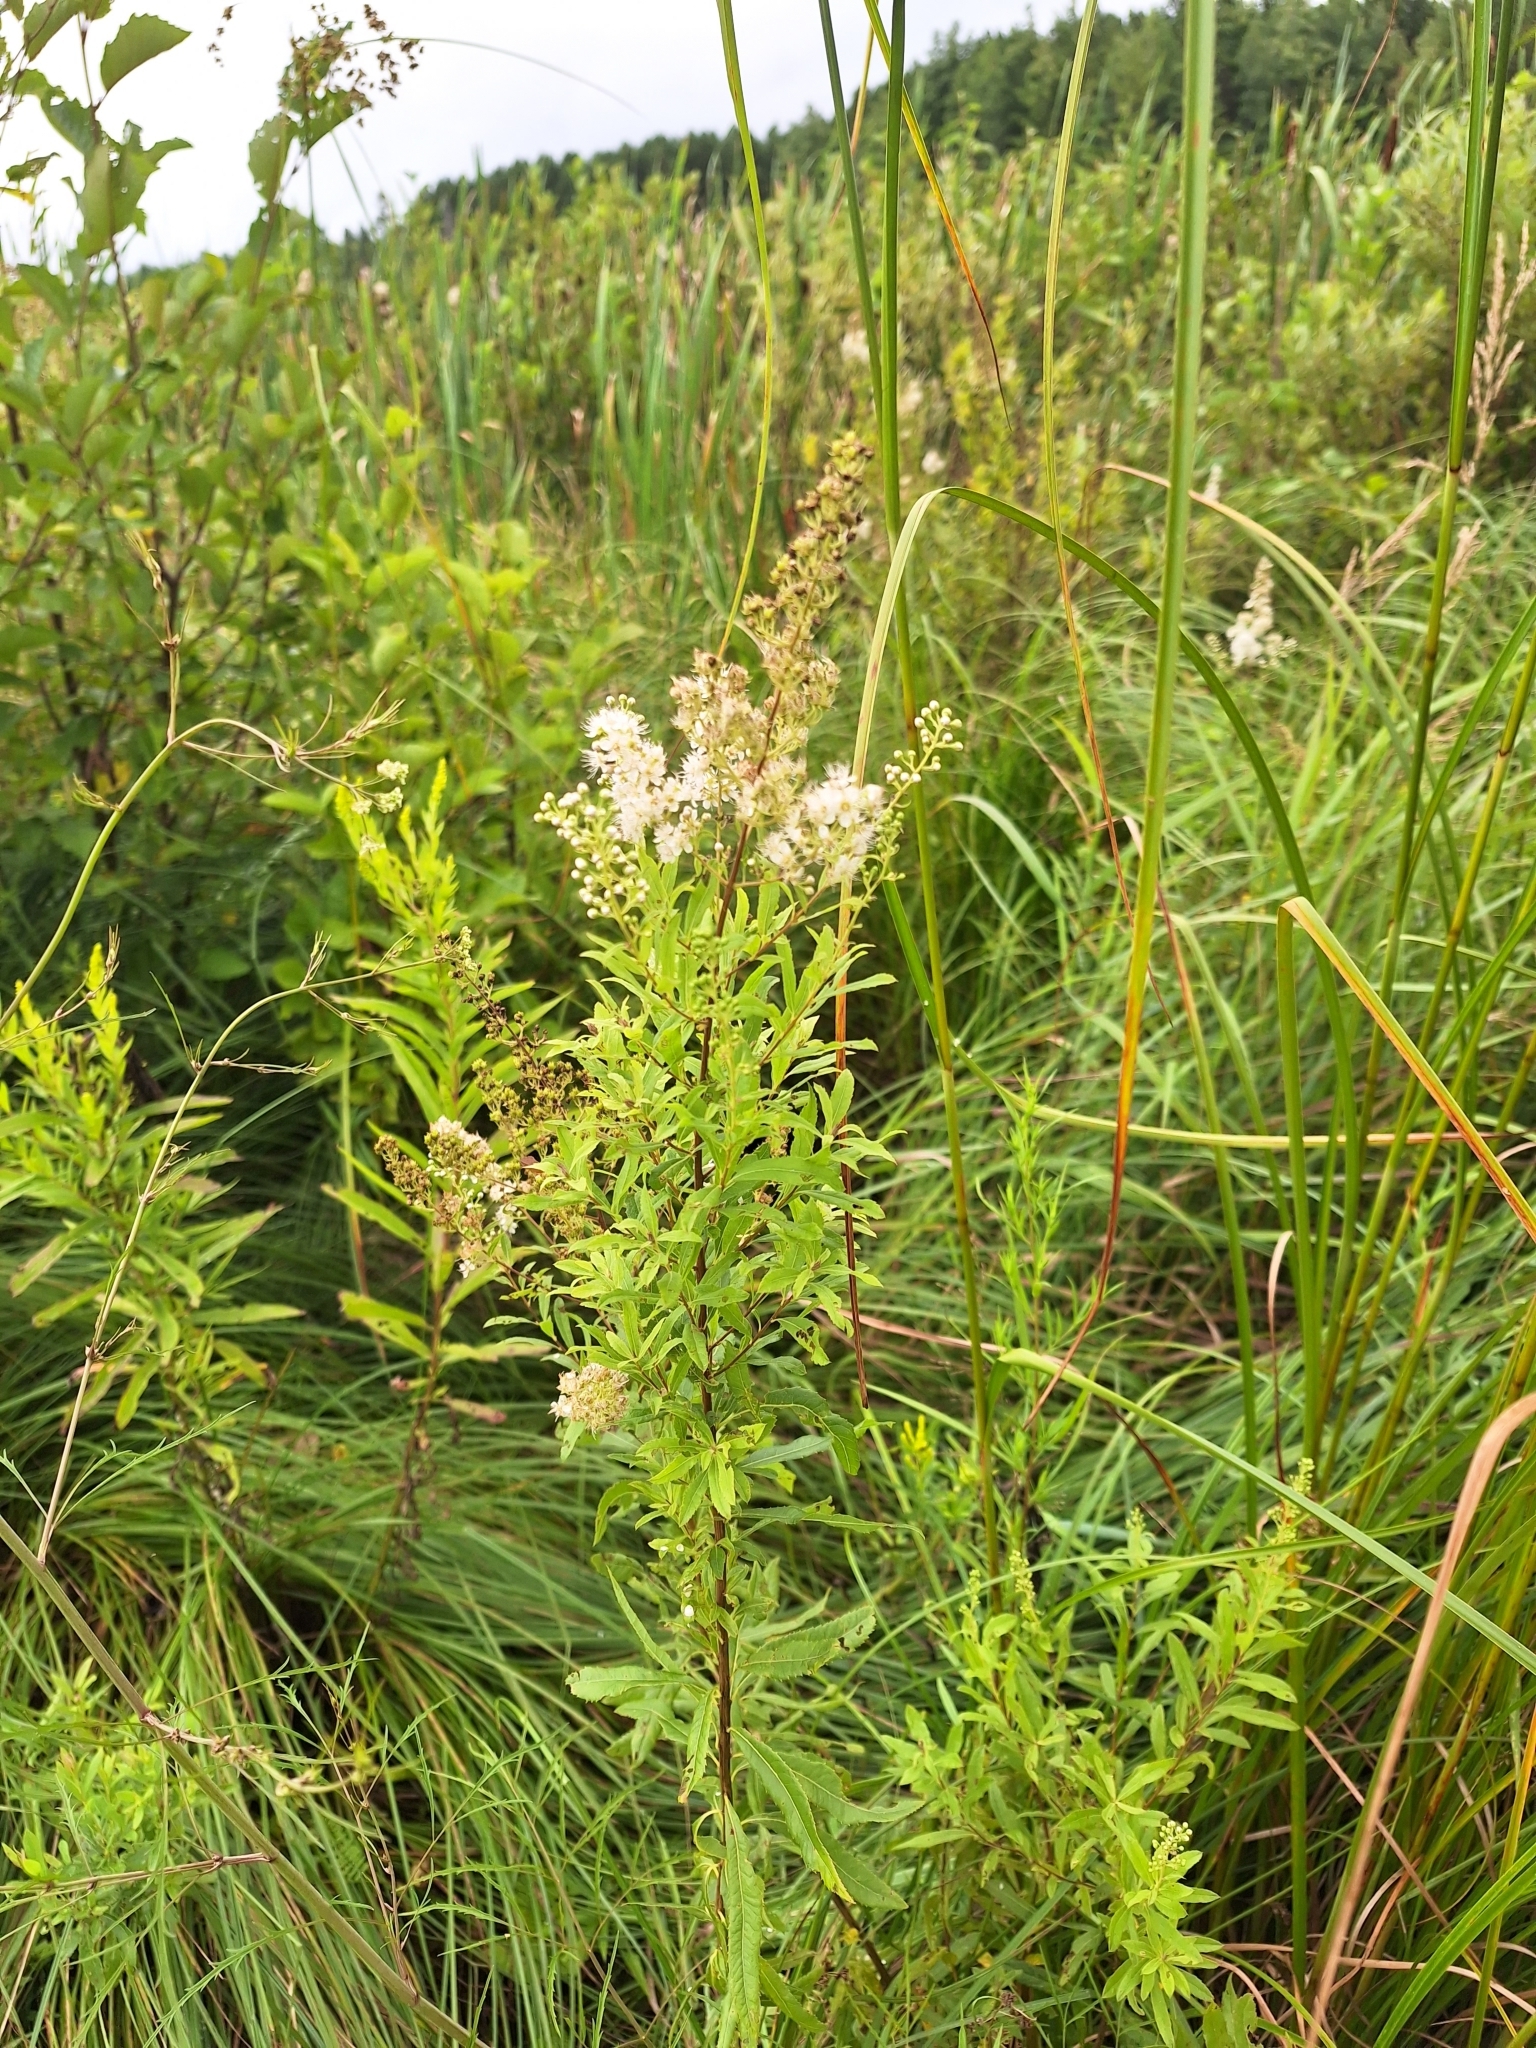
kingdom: Plantae
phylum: Tracheophyta
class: Magnoliopsida
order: Rosales
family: Rosaceae
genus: Spiraea
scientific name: Spiraea alba
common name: Pale bridewort
